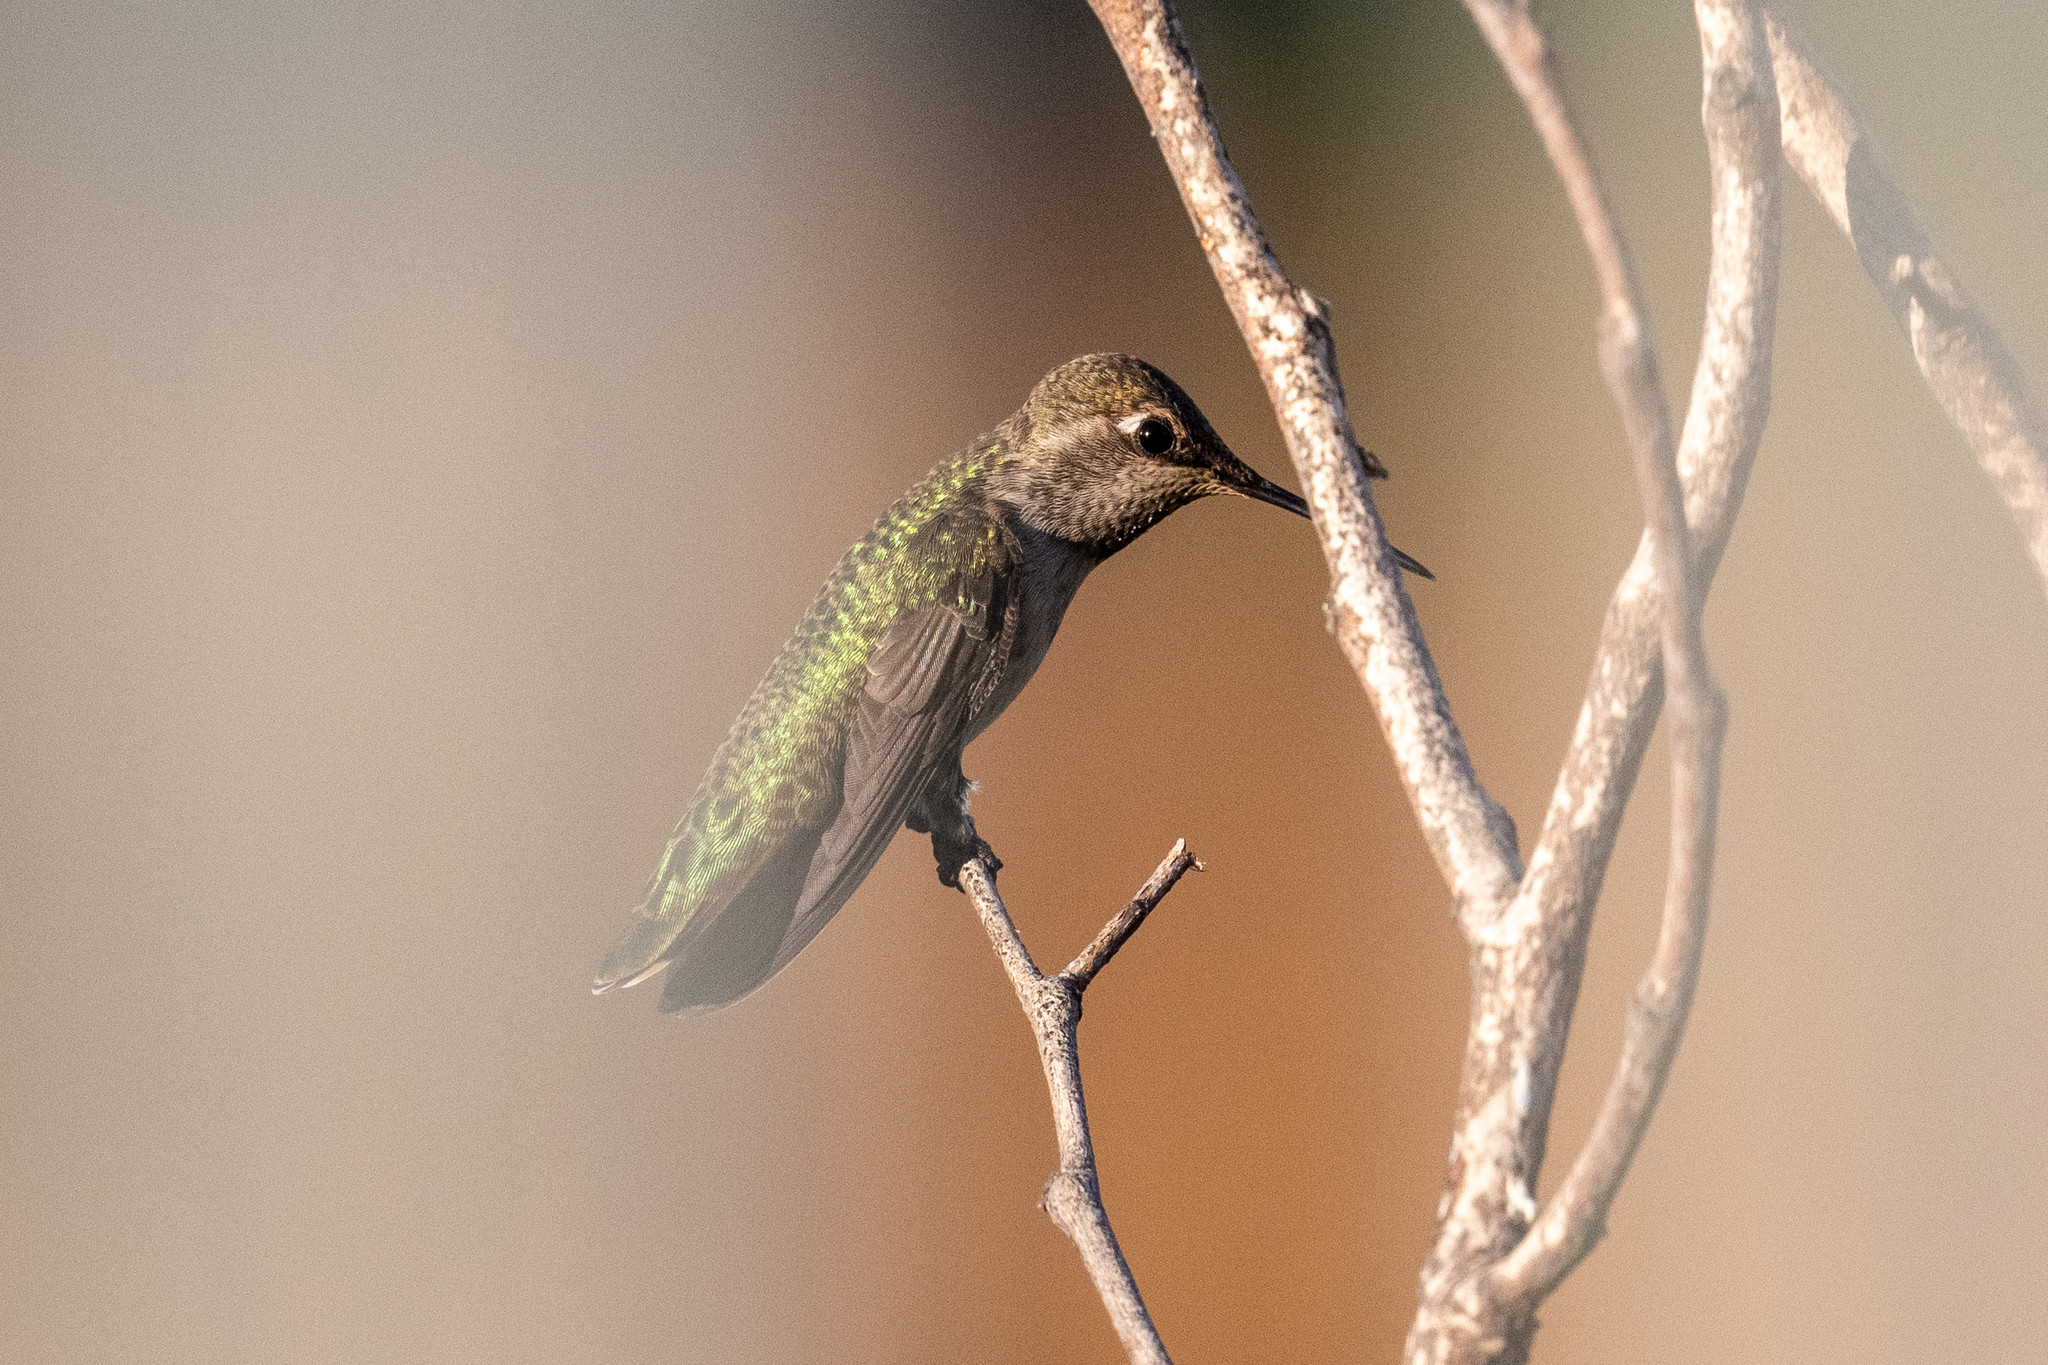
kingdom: Animalia
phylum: Chordata
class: Aves
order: Apodiformes
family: Trochilidae
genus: Calypte
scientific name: Calypte anna
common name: Anna's hummingbird
